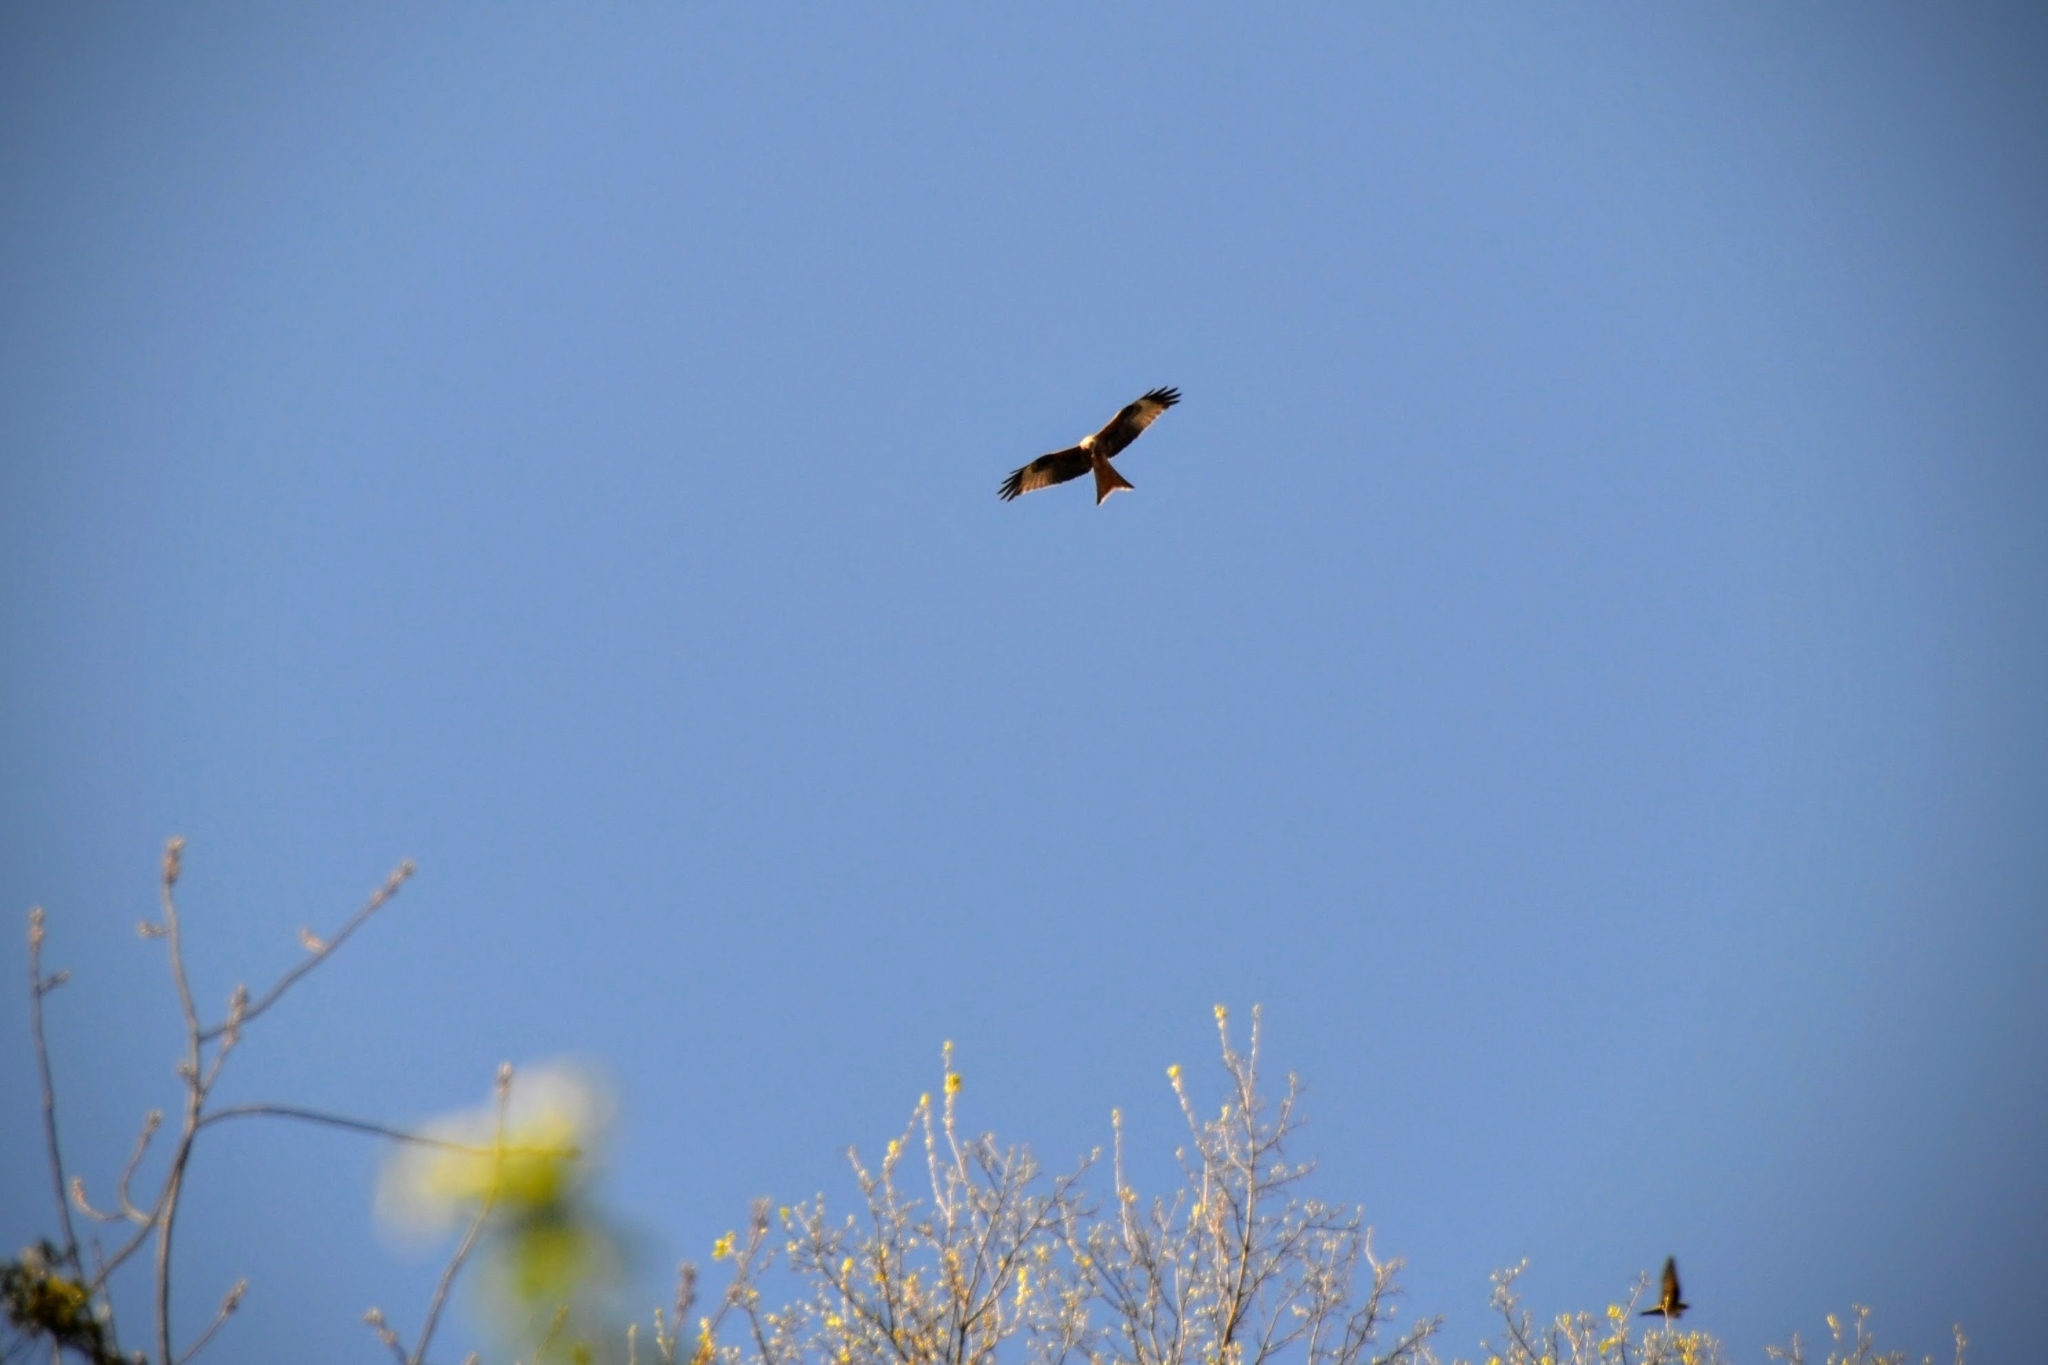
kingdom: Animalia
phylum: Chordata
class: Aves
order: Accipitriformes
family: Accipitridae
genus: Milvus
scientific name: Milvus milvus
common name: Red kite
